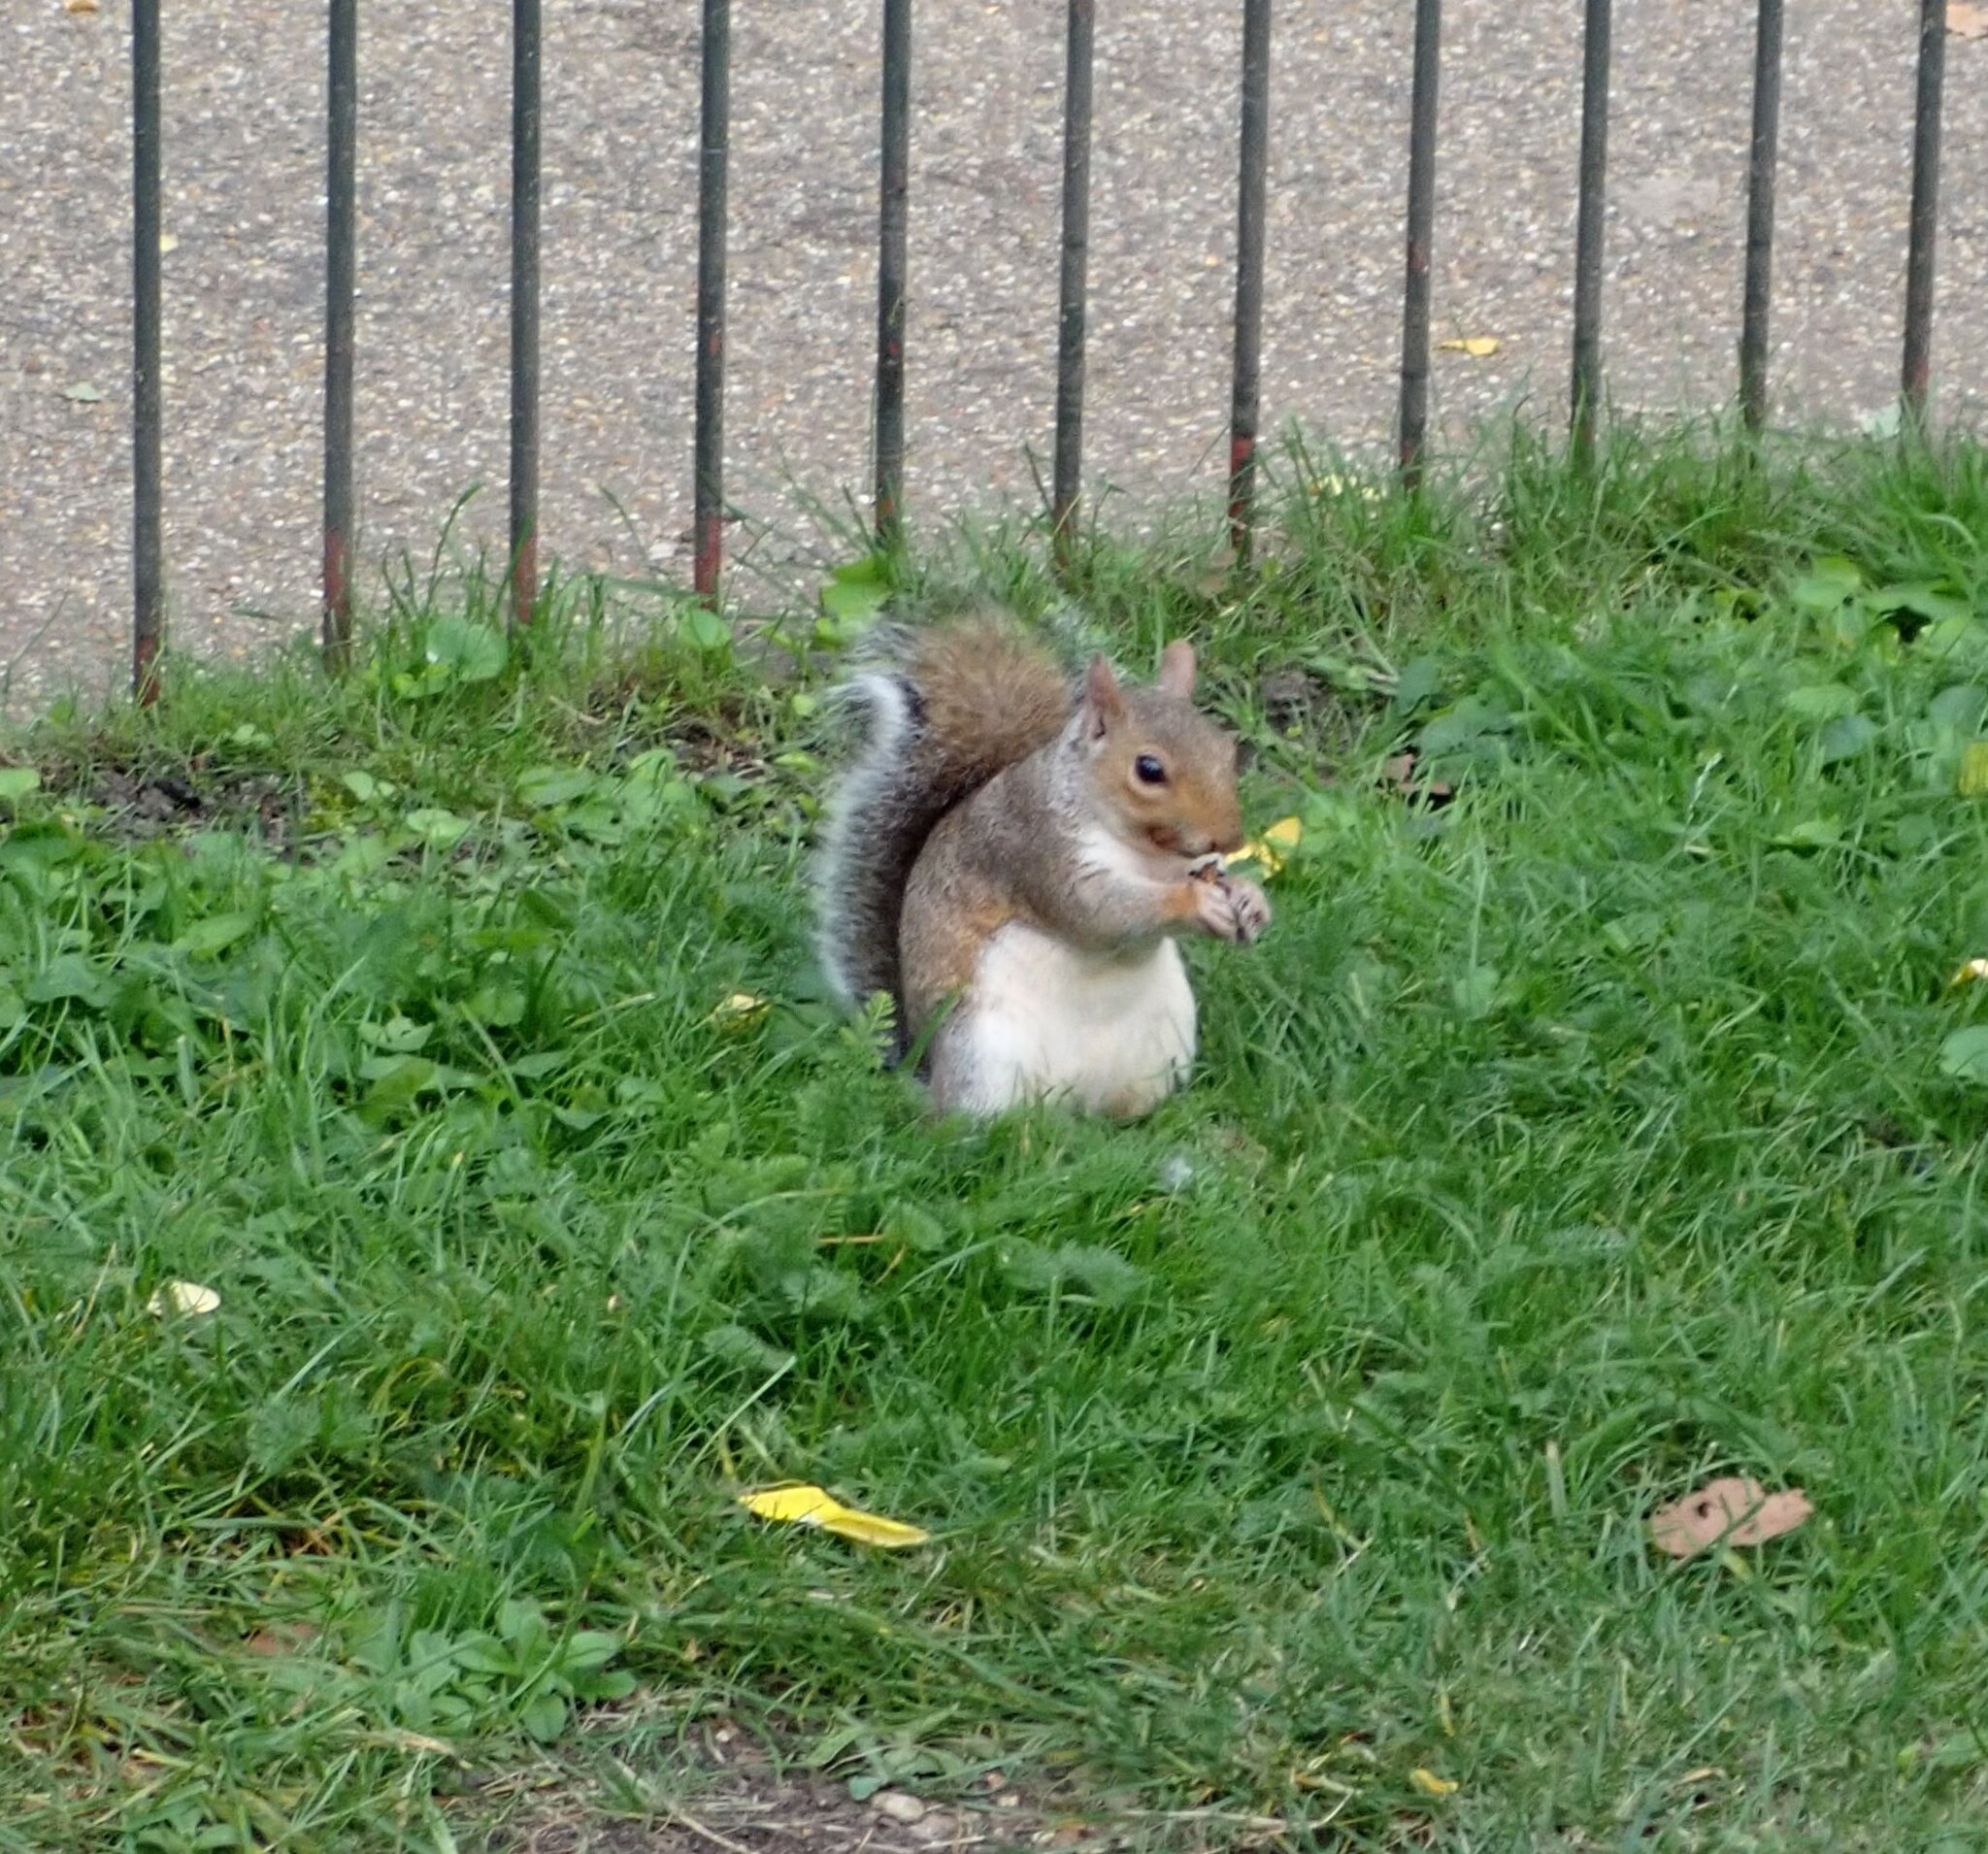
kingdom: Animalia
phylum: Chordata
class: Mammalia
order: Rodentia
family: Sciuridae
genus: Sciurus
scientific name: Sciurus carolinensis
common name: Eastern gray squirrel
